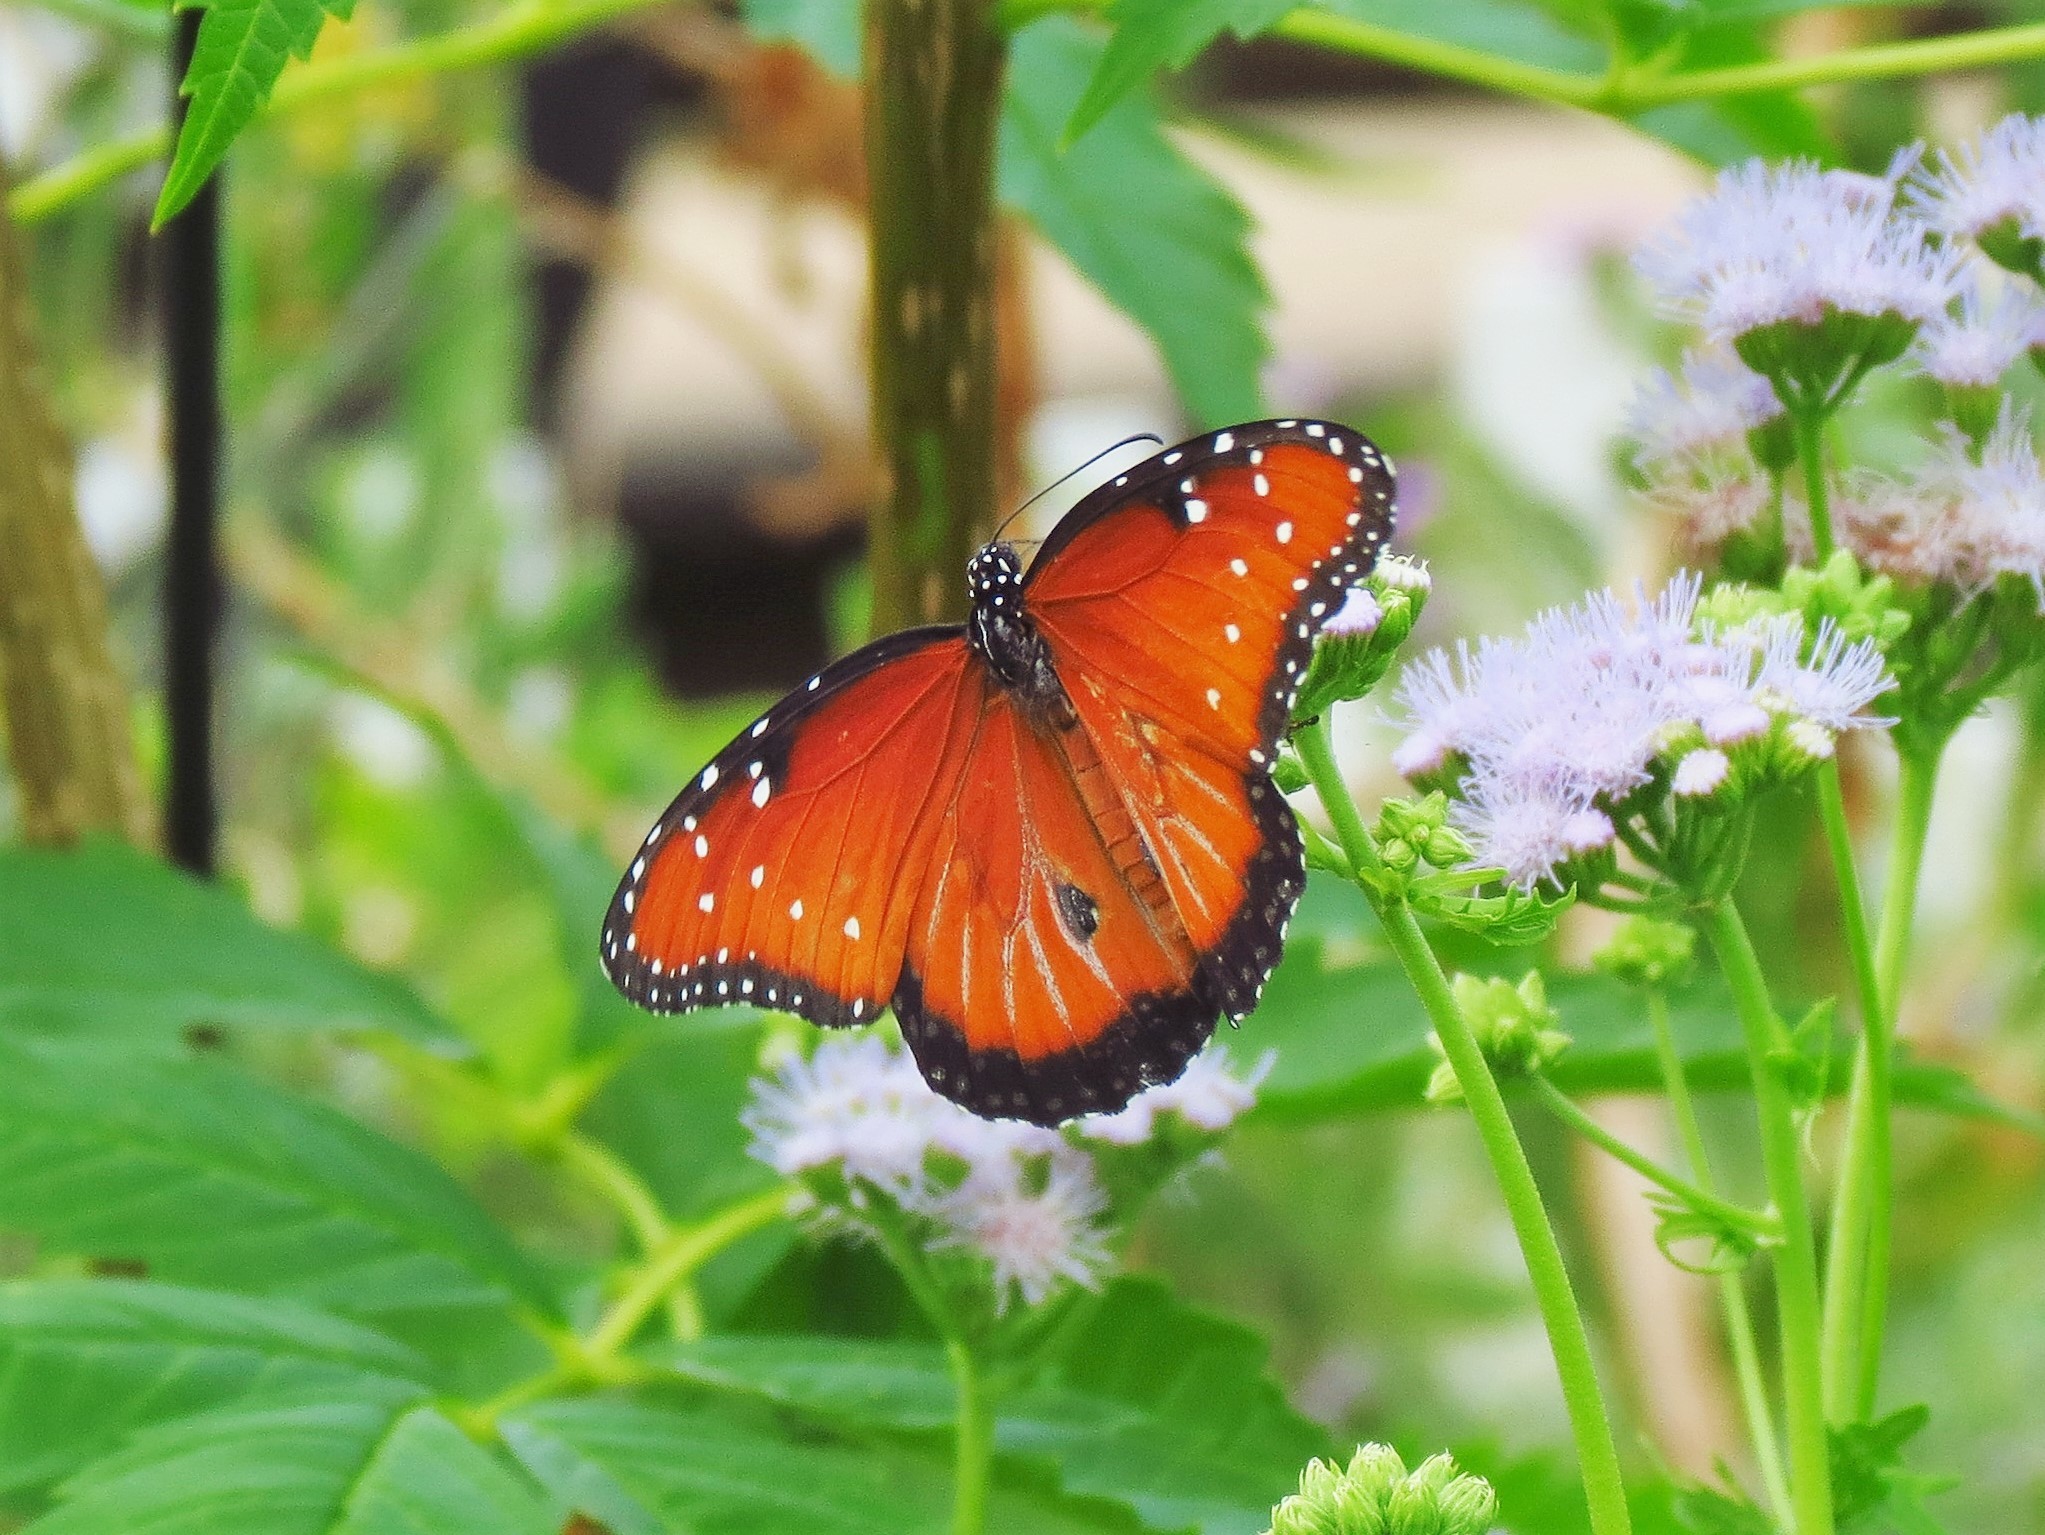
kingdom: Animalia
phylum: Arthropoda
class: Insecta
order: Lepidoptera
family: Nymphalidae
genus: Danaus
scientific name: Danaus gilippus
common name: Queen
